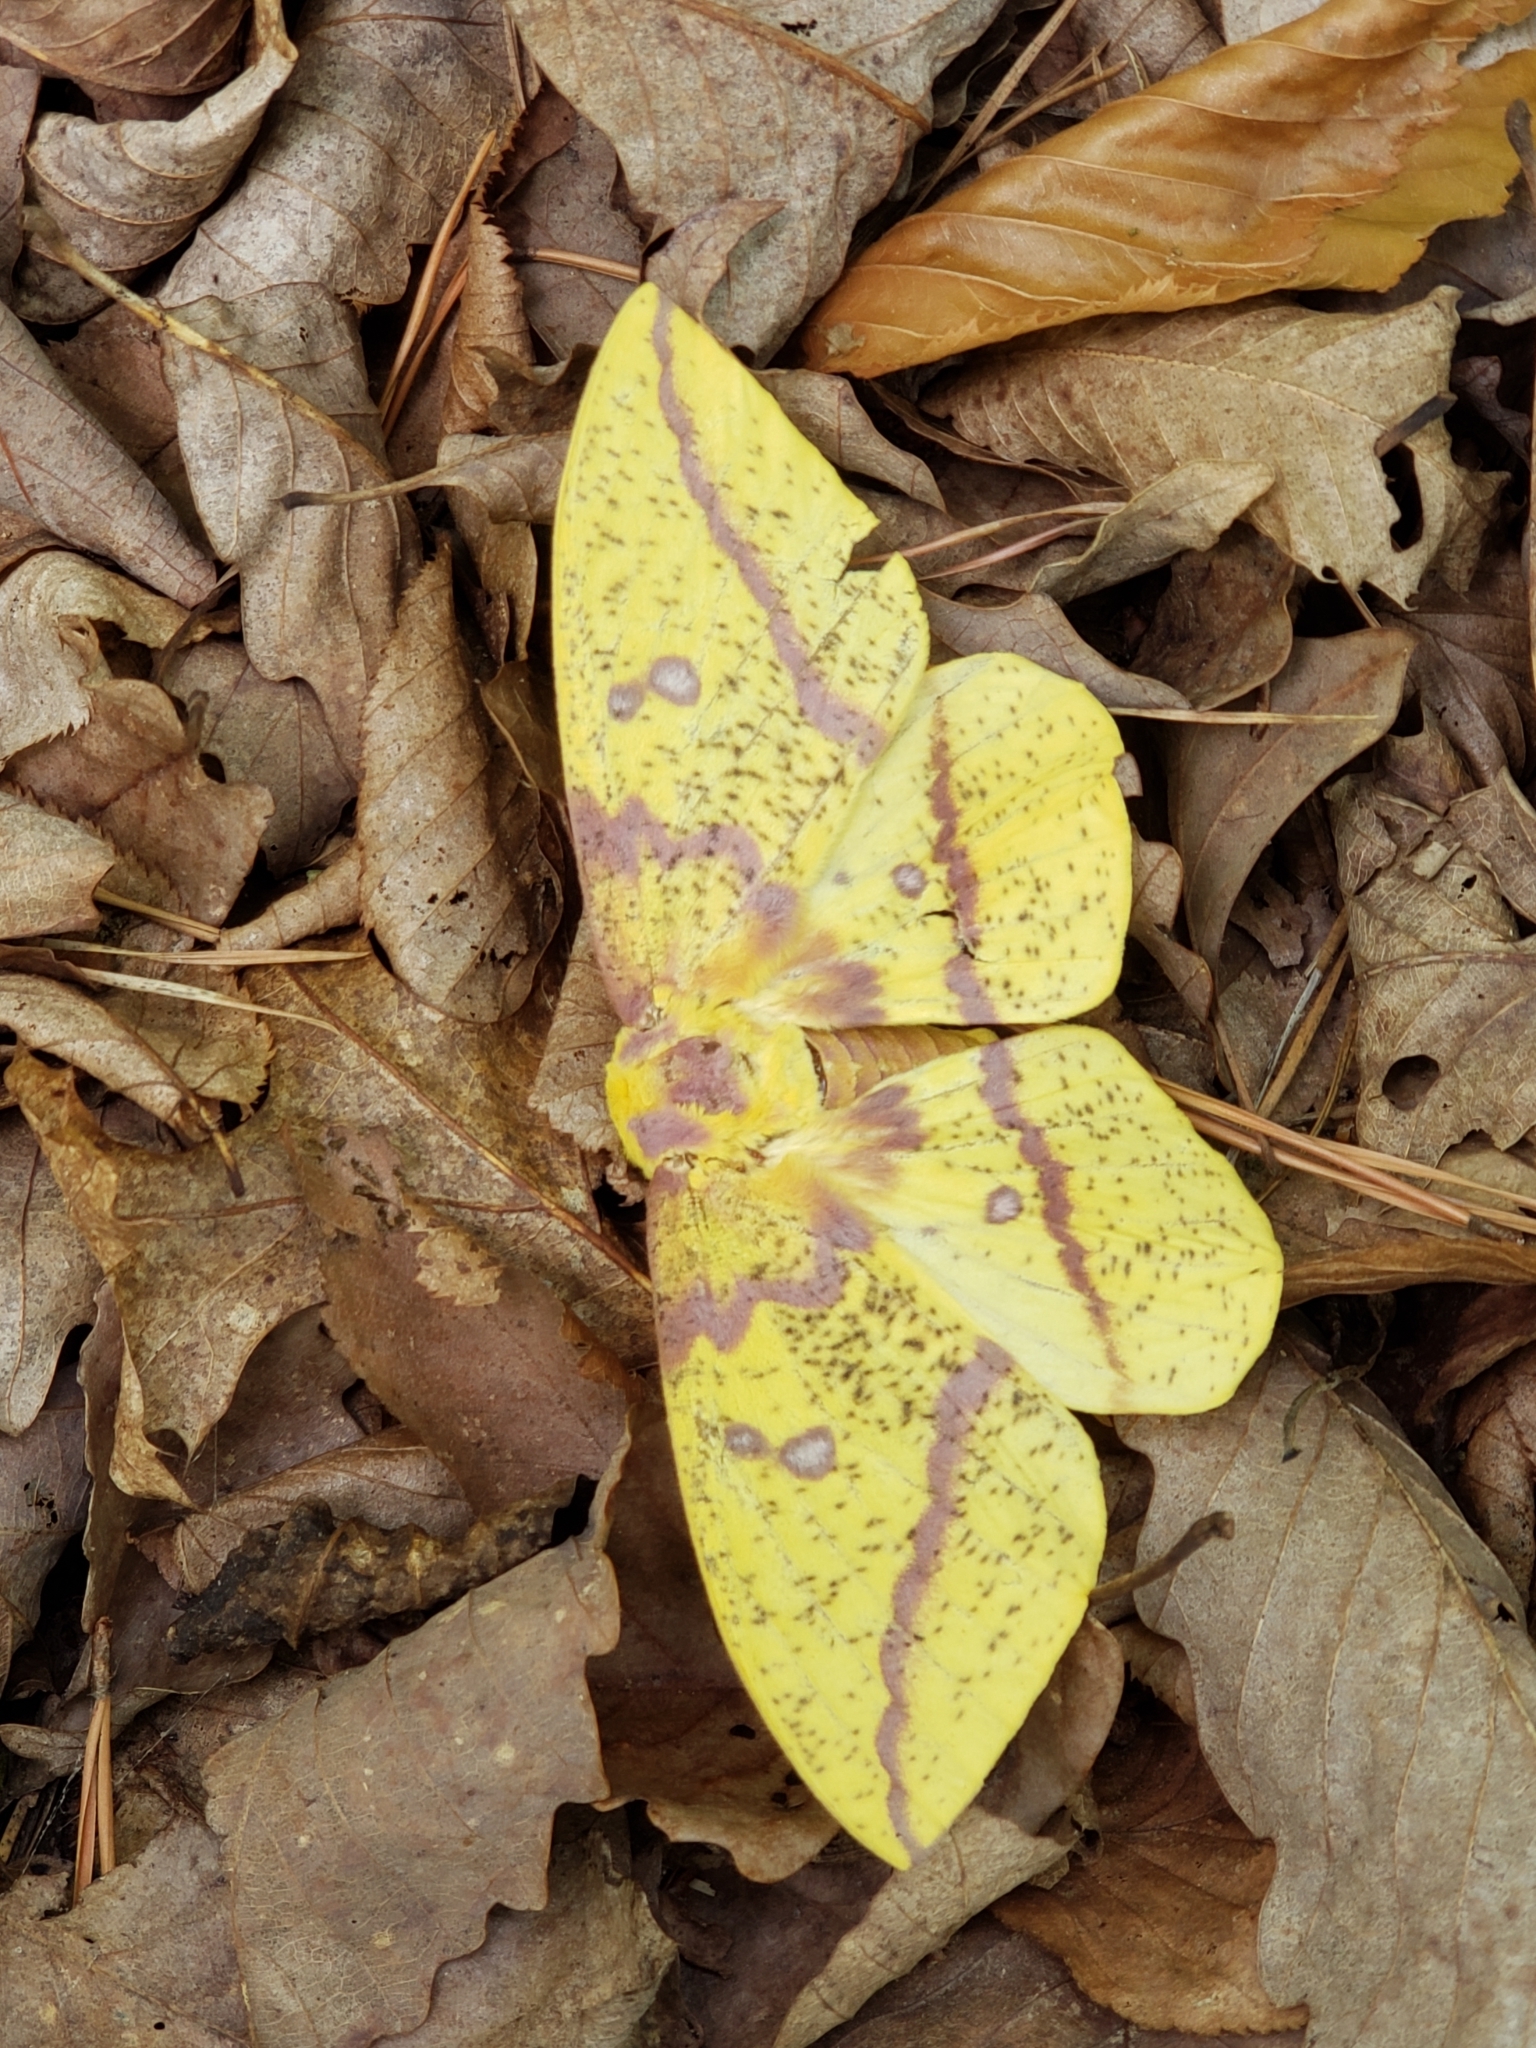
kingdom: Animalia
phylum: Arthropoda
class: Insecta
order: Lepidoptera
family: Saturniidae
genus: Eacles
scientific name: Eacles imperialis
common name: Imperial moth
